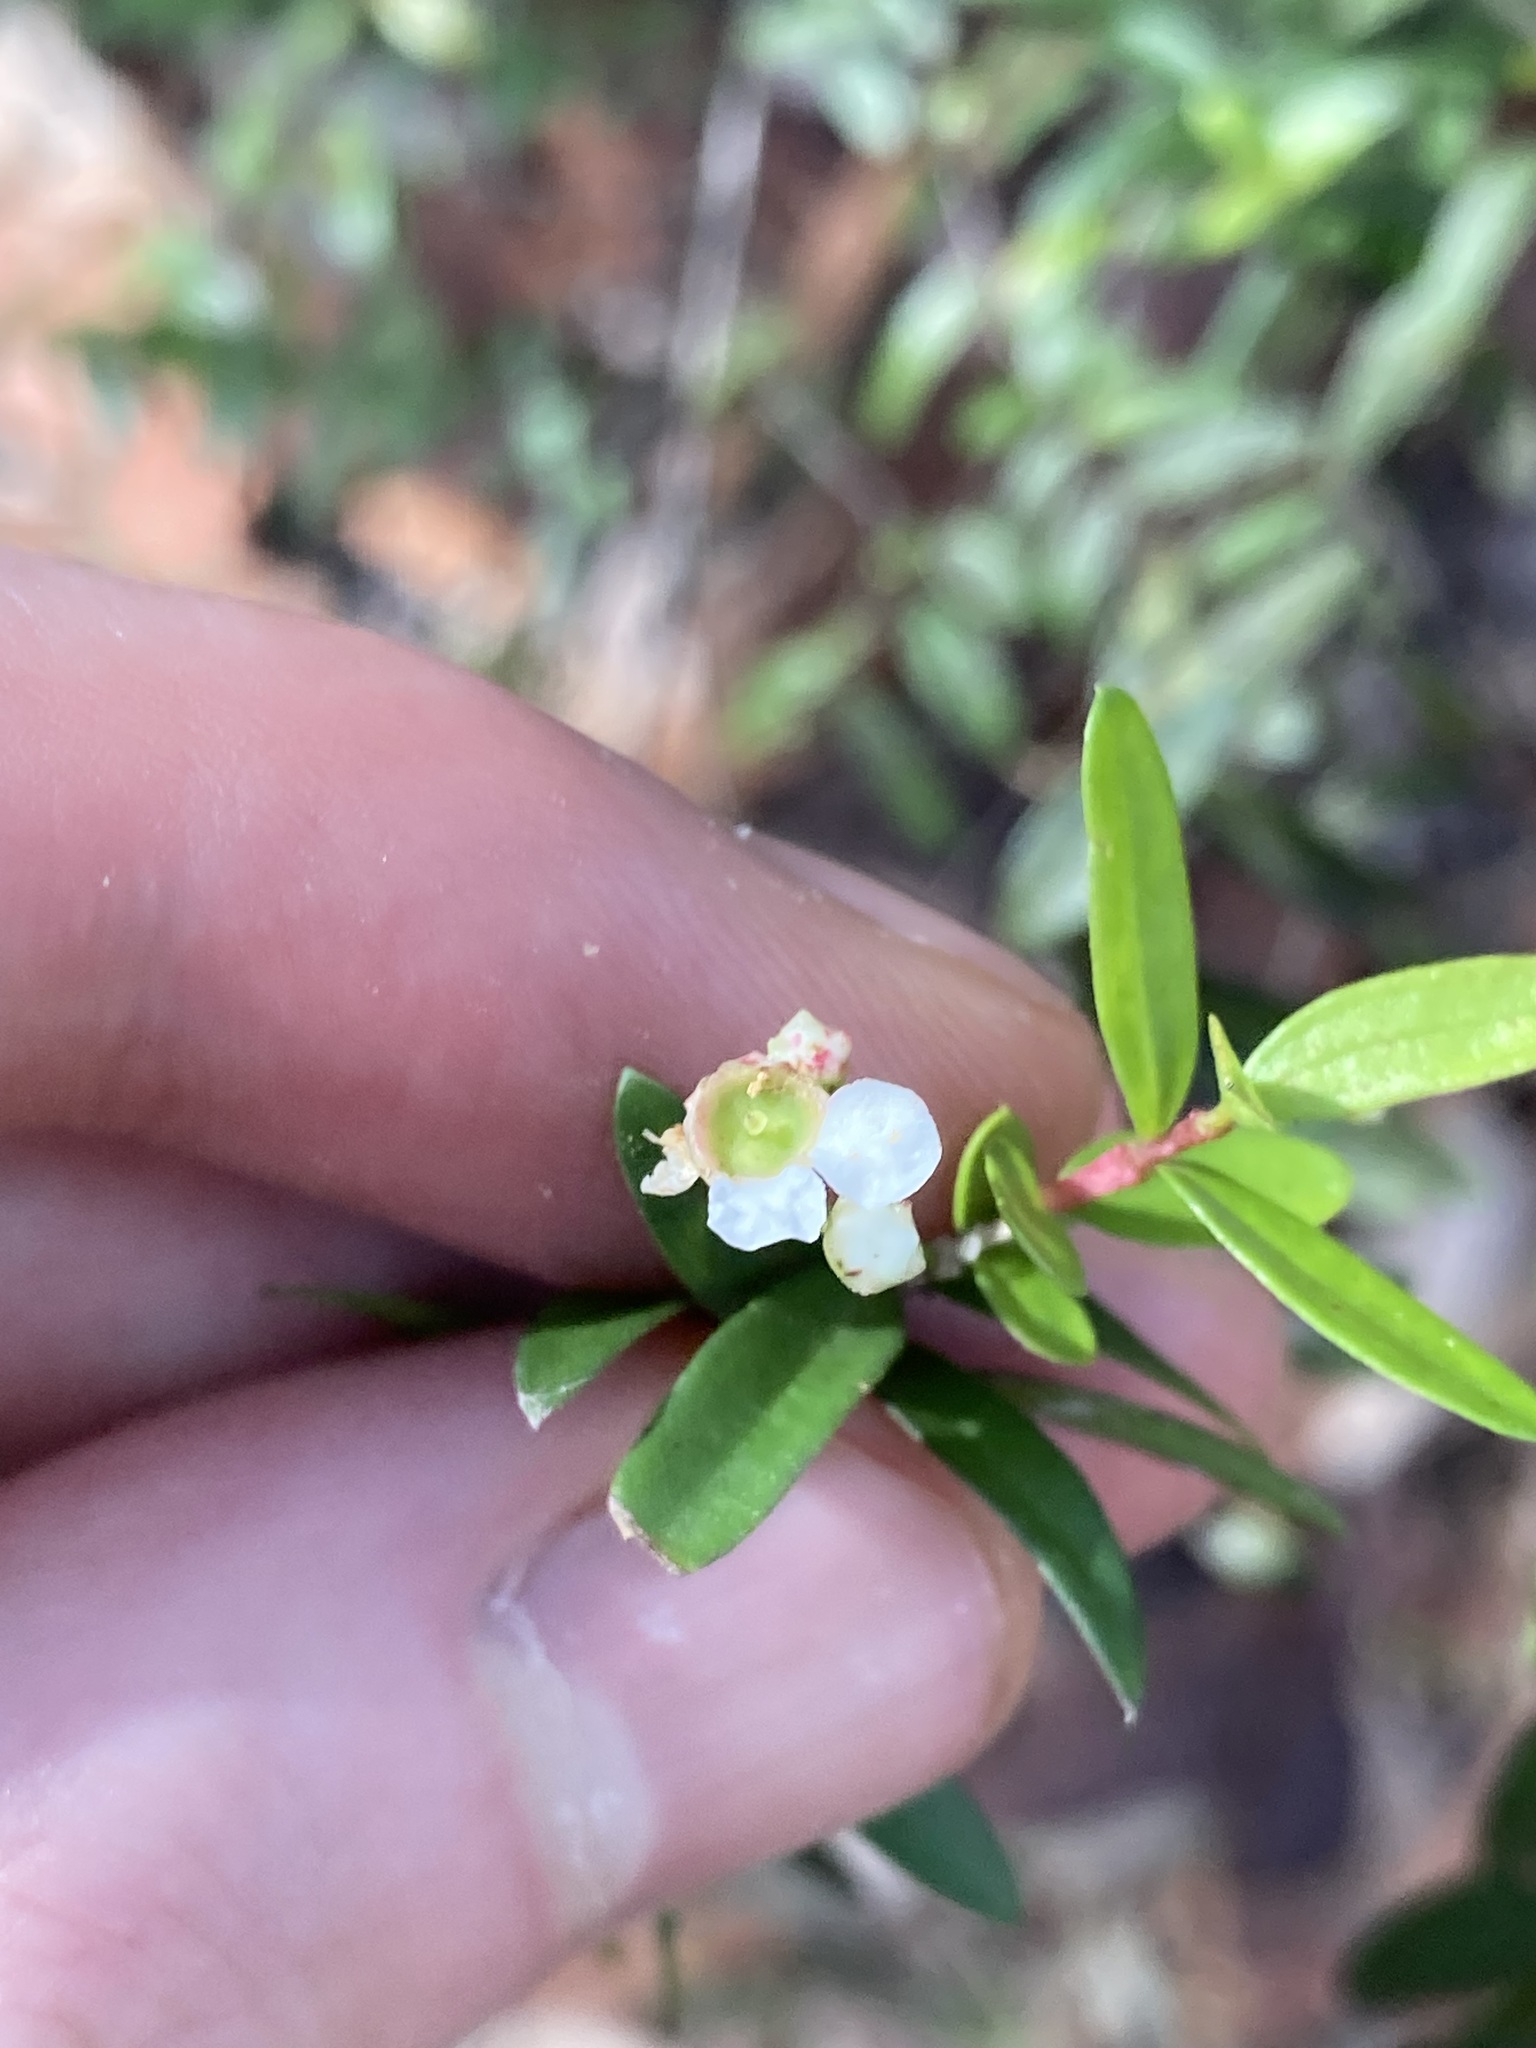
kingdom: Plantae
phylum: Tracheophyta
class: Magnoliopsida
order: Myrtales
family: Myrtaceae
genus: Sannantha
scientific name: Sannantha pluriflora
